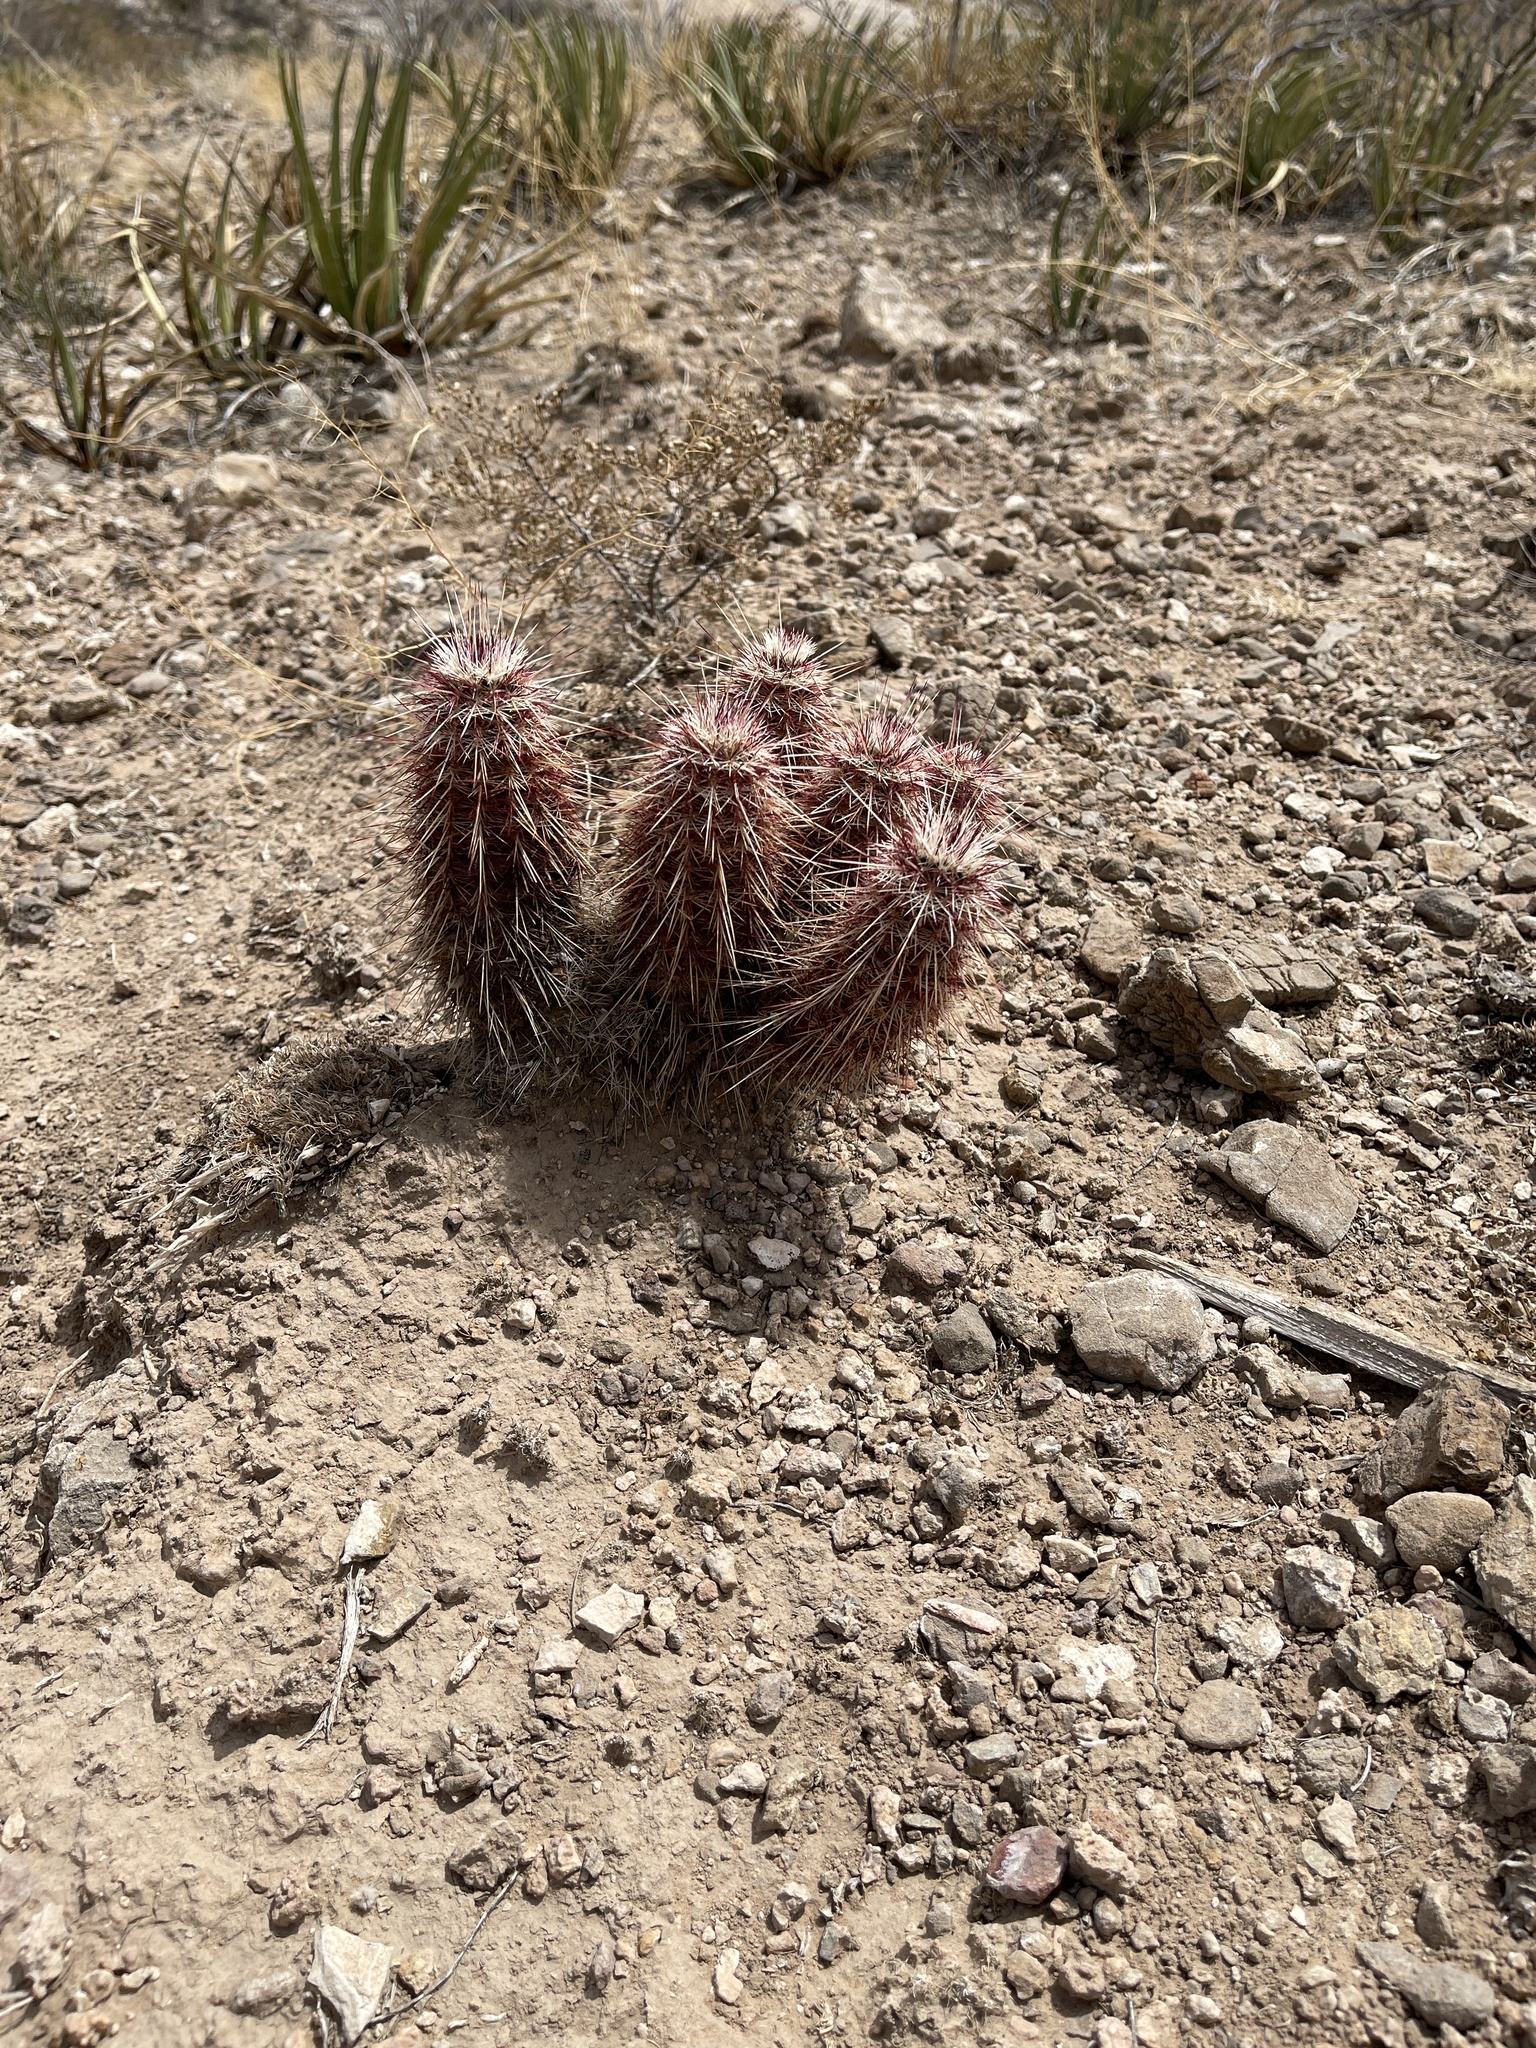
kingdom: Plantae
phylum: Tracheophyta
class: Magnoliopsida
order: Caryophyllales
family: Cactaceae
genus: Echinocereus
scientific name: Echinocereus viridiflorus
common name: Nylon hedgehog cactus
